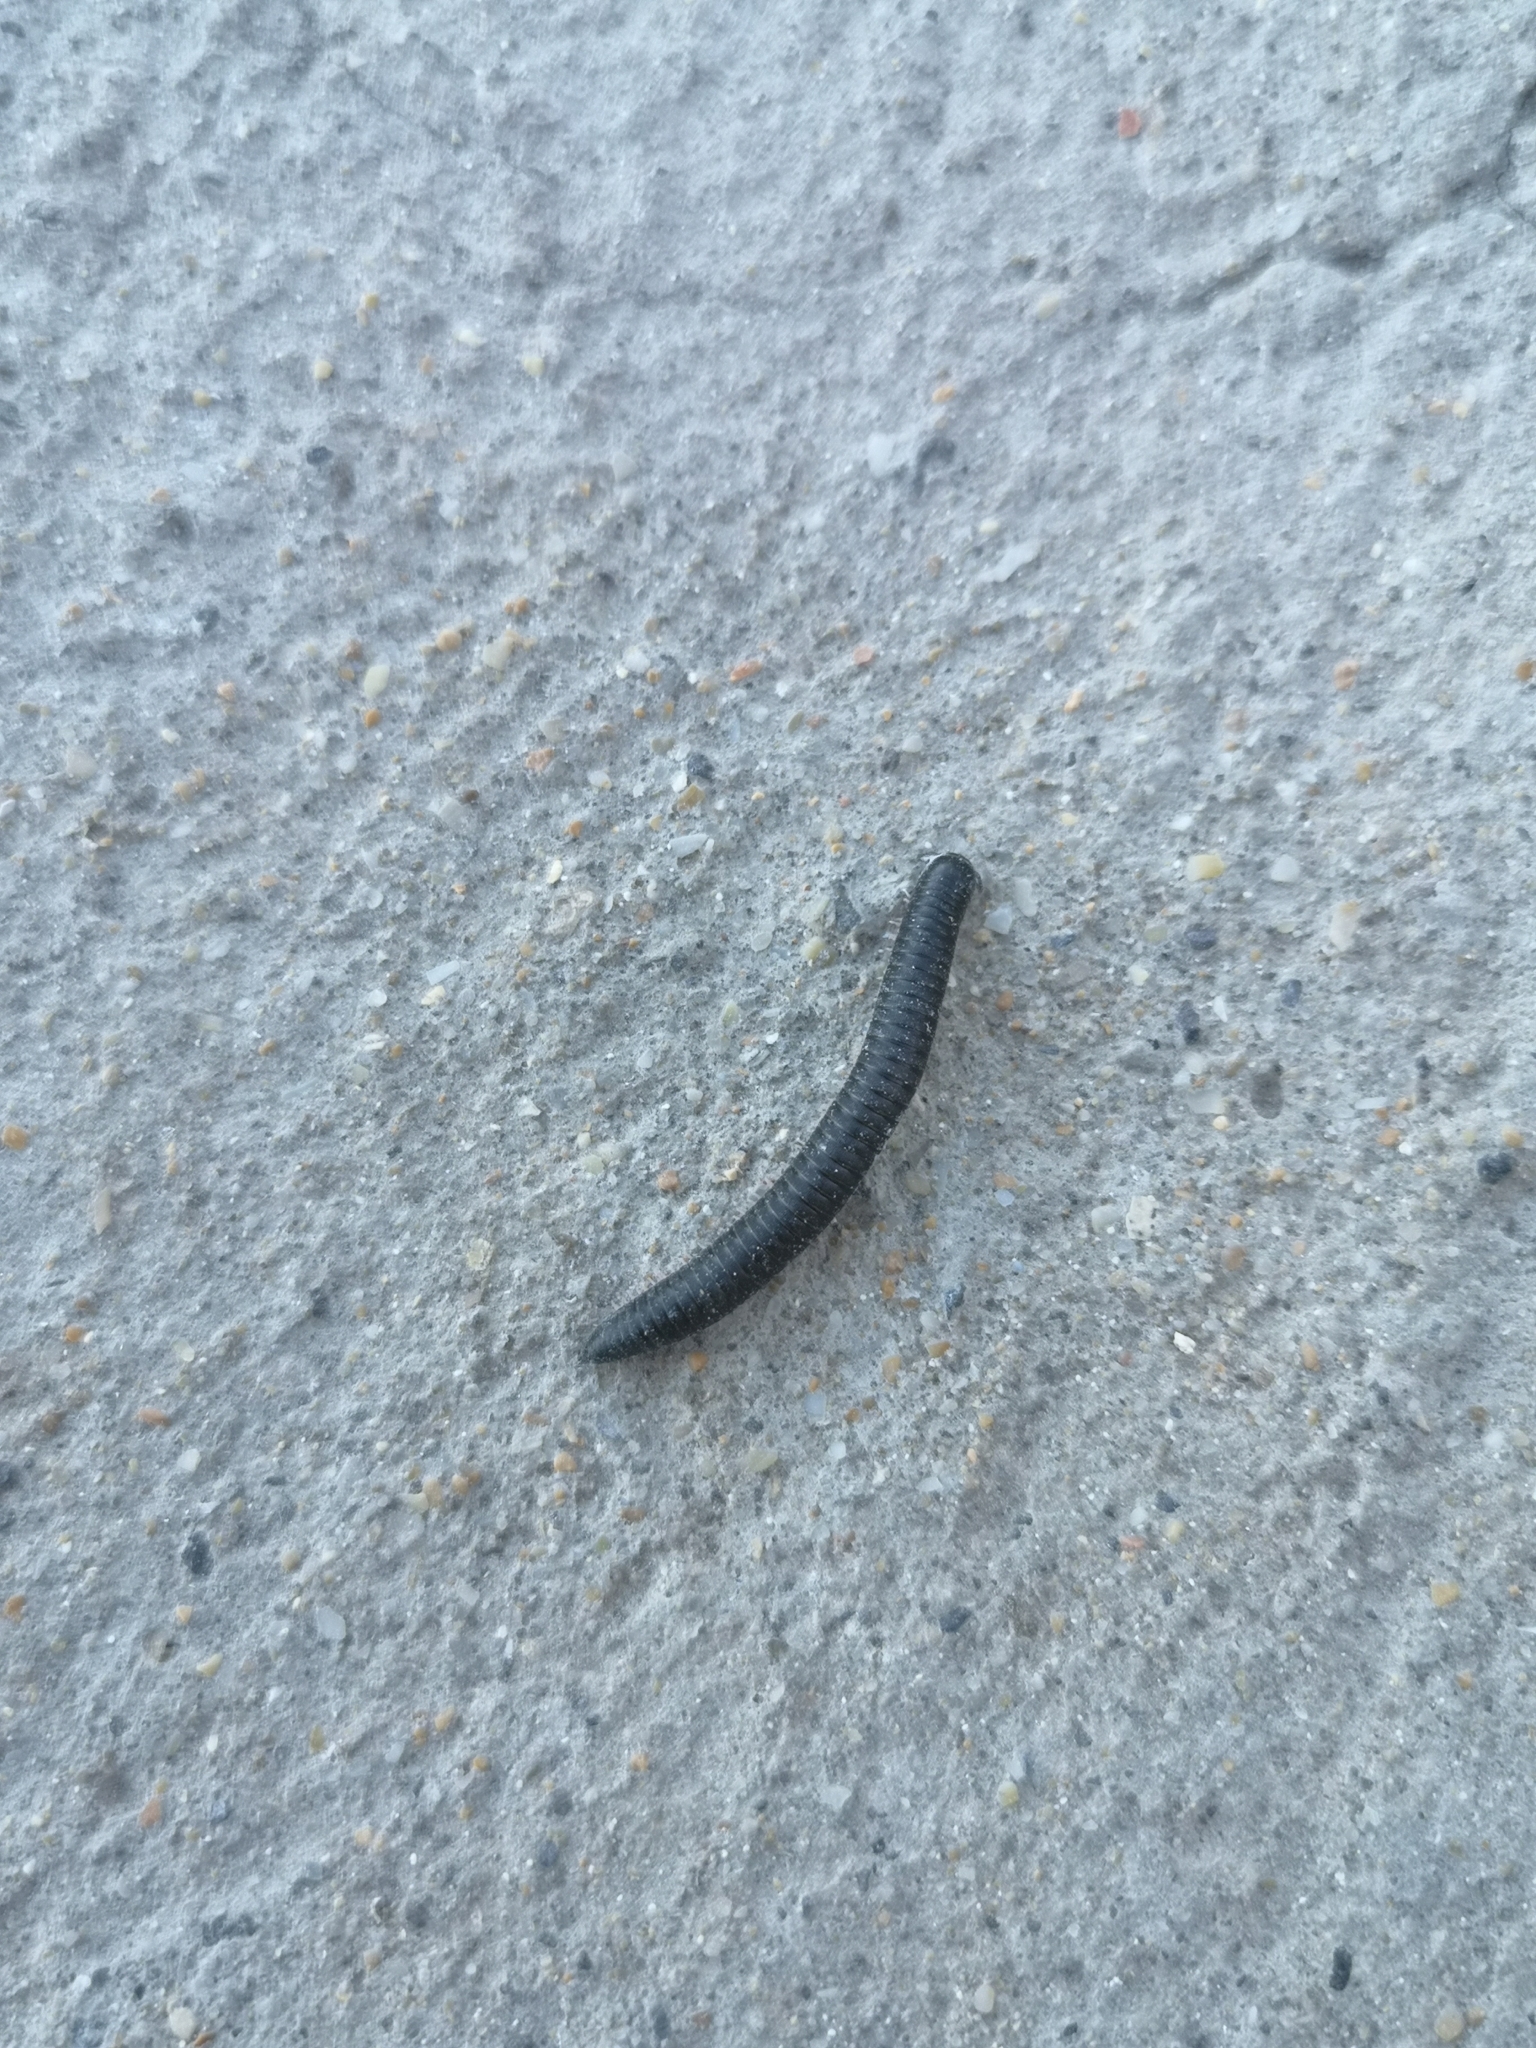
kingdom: Animalia
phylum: Arthropoda
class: Diplopoda
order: Julida
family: Julidae
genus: Ommatoiulus
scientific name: Ommatoiulus moreleti
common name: Portuguese millipede
